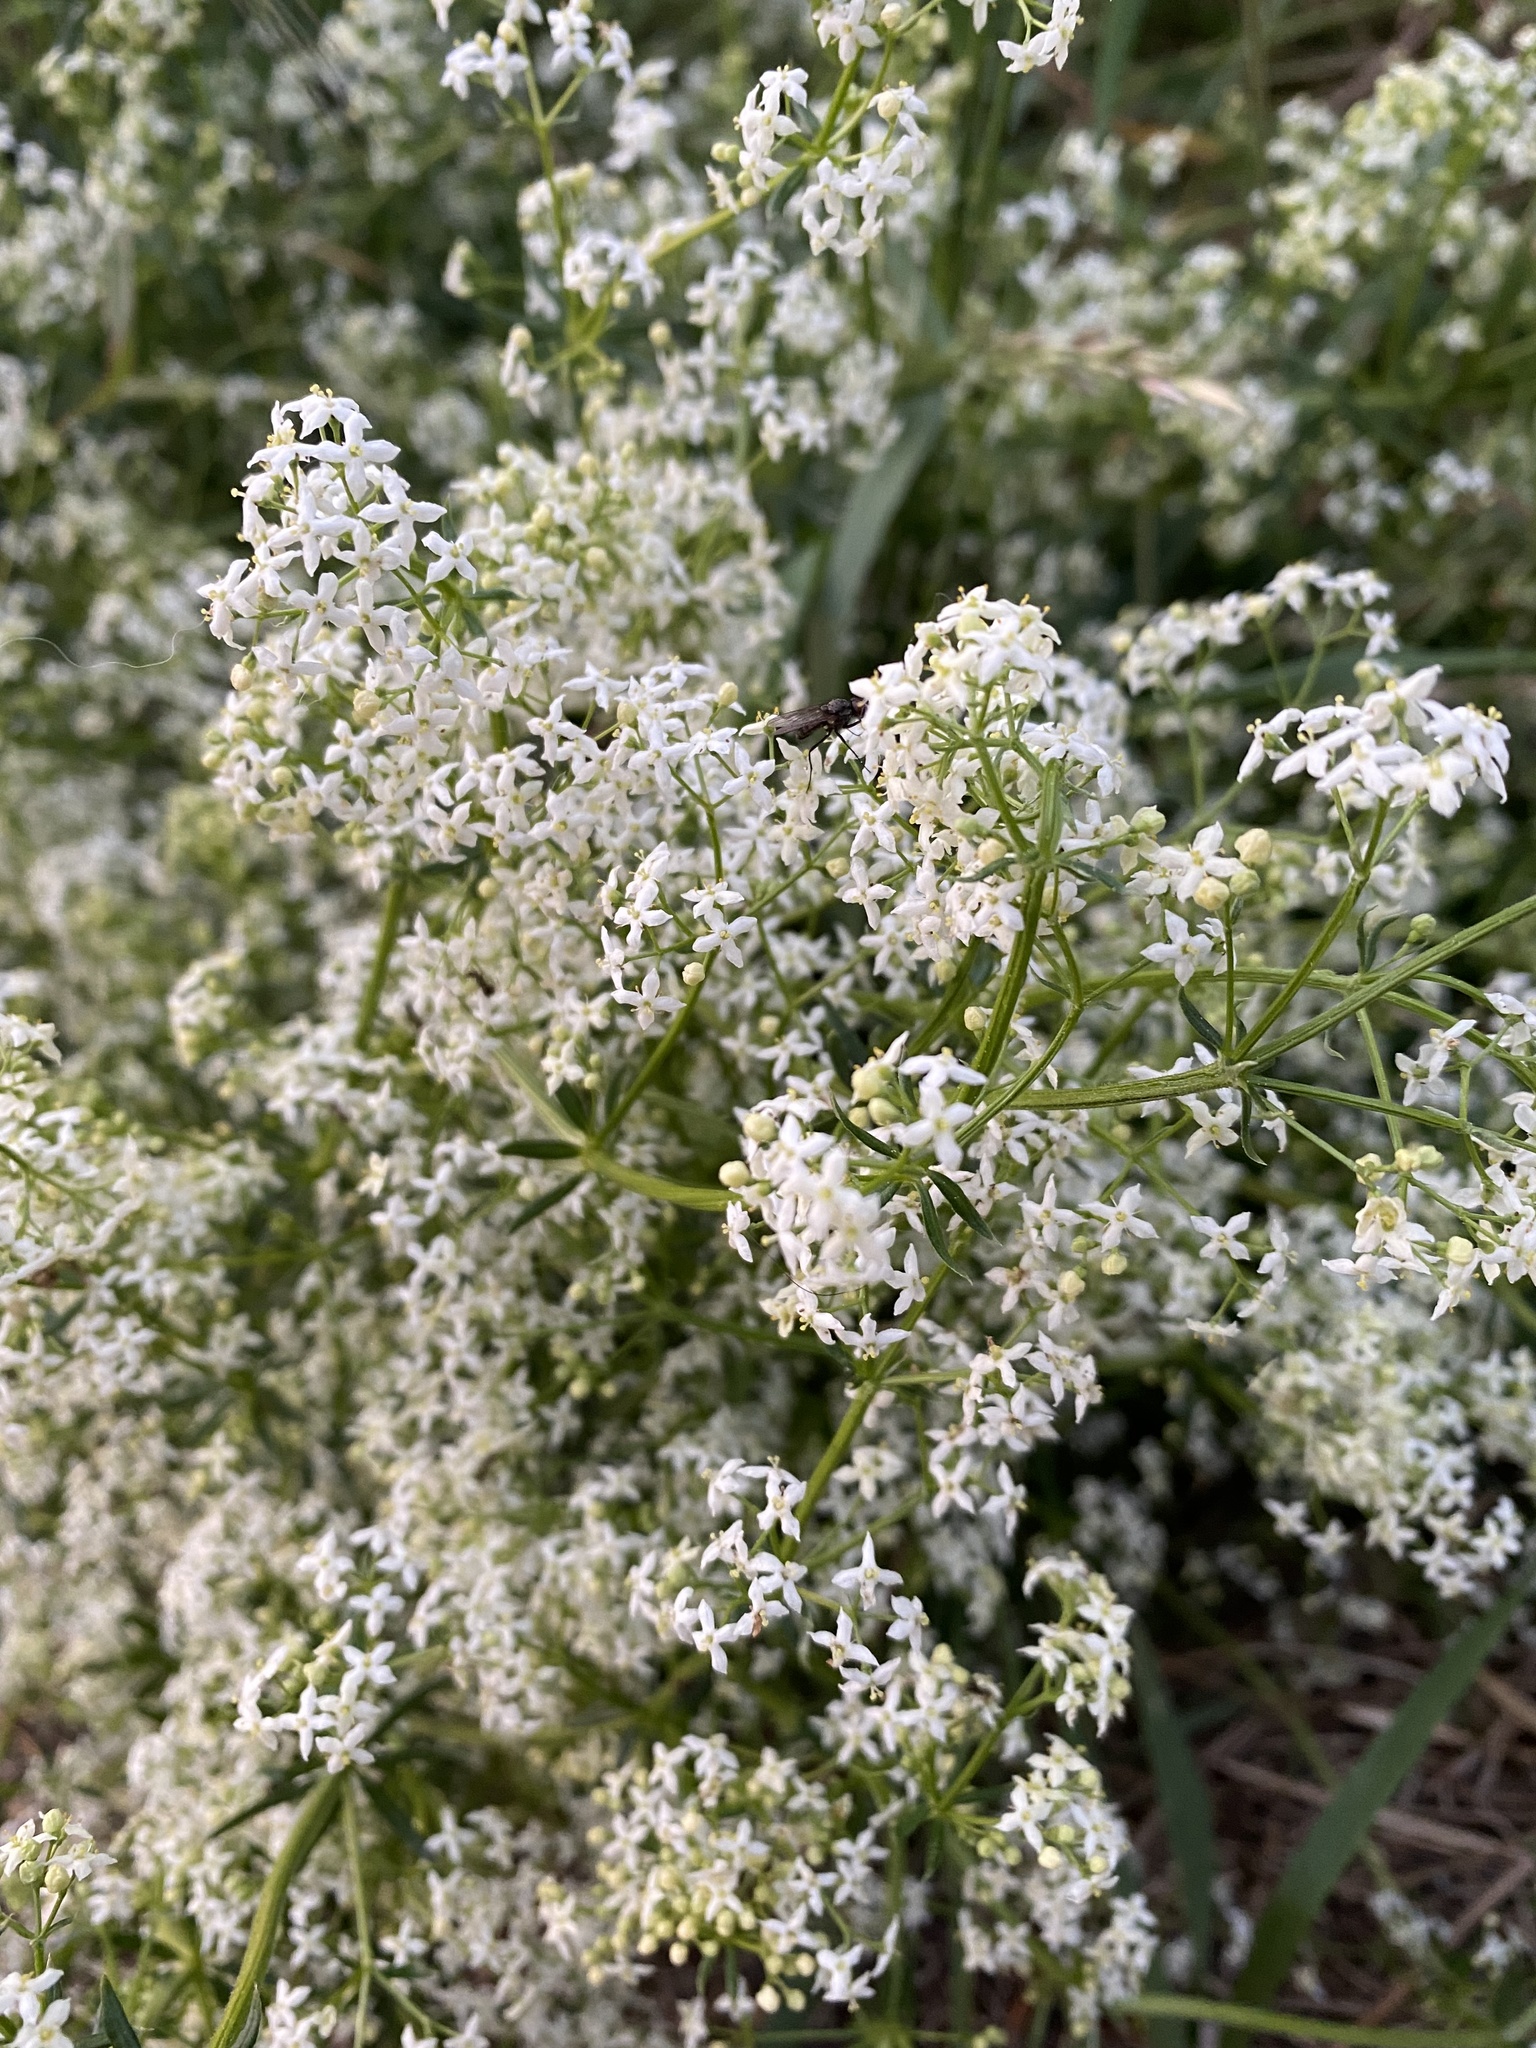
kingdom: Plantae
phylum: Tracheophyta
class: Magnoliopsida
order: Gentianales
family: Rubiaceae
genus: Galium
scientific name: Galium album
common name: White bedstraw
